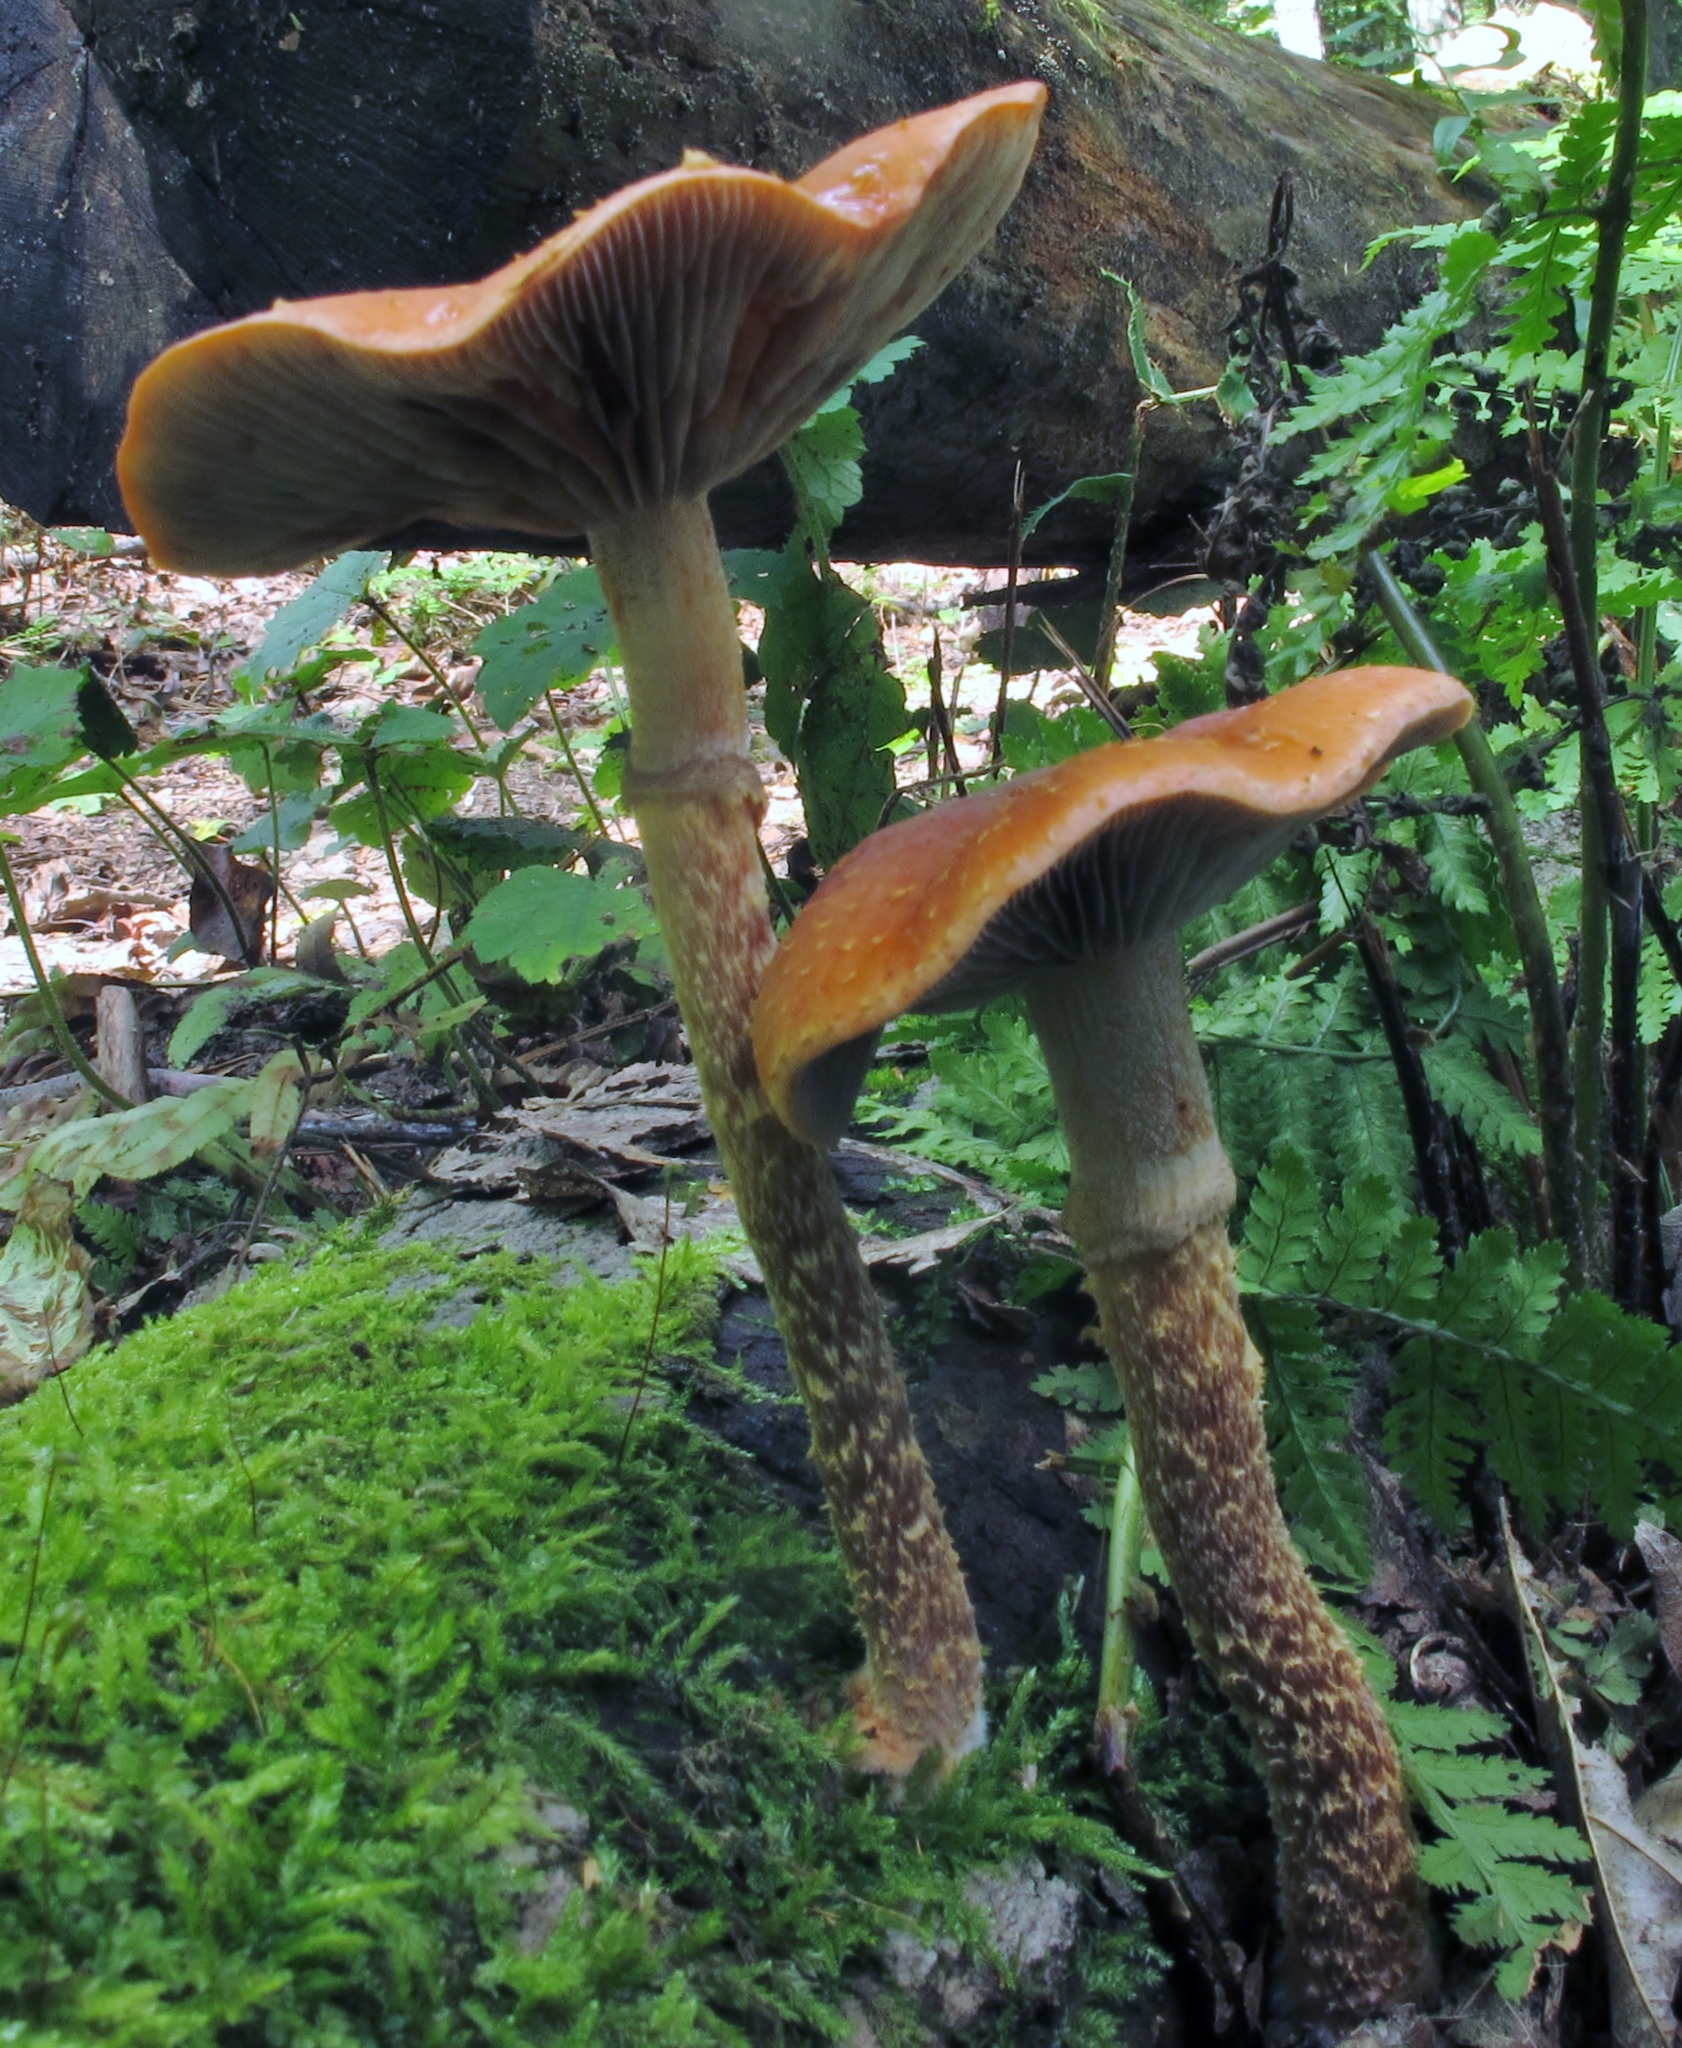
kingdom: Fungi
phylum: Basidiomycota
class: Agaricomycetes
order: Agaricales
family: Strophariaceae
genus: Leratiomyces
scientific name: Leratiomyces squamosus
